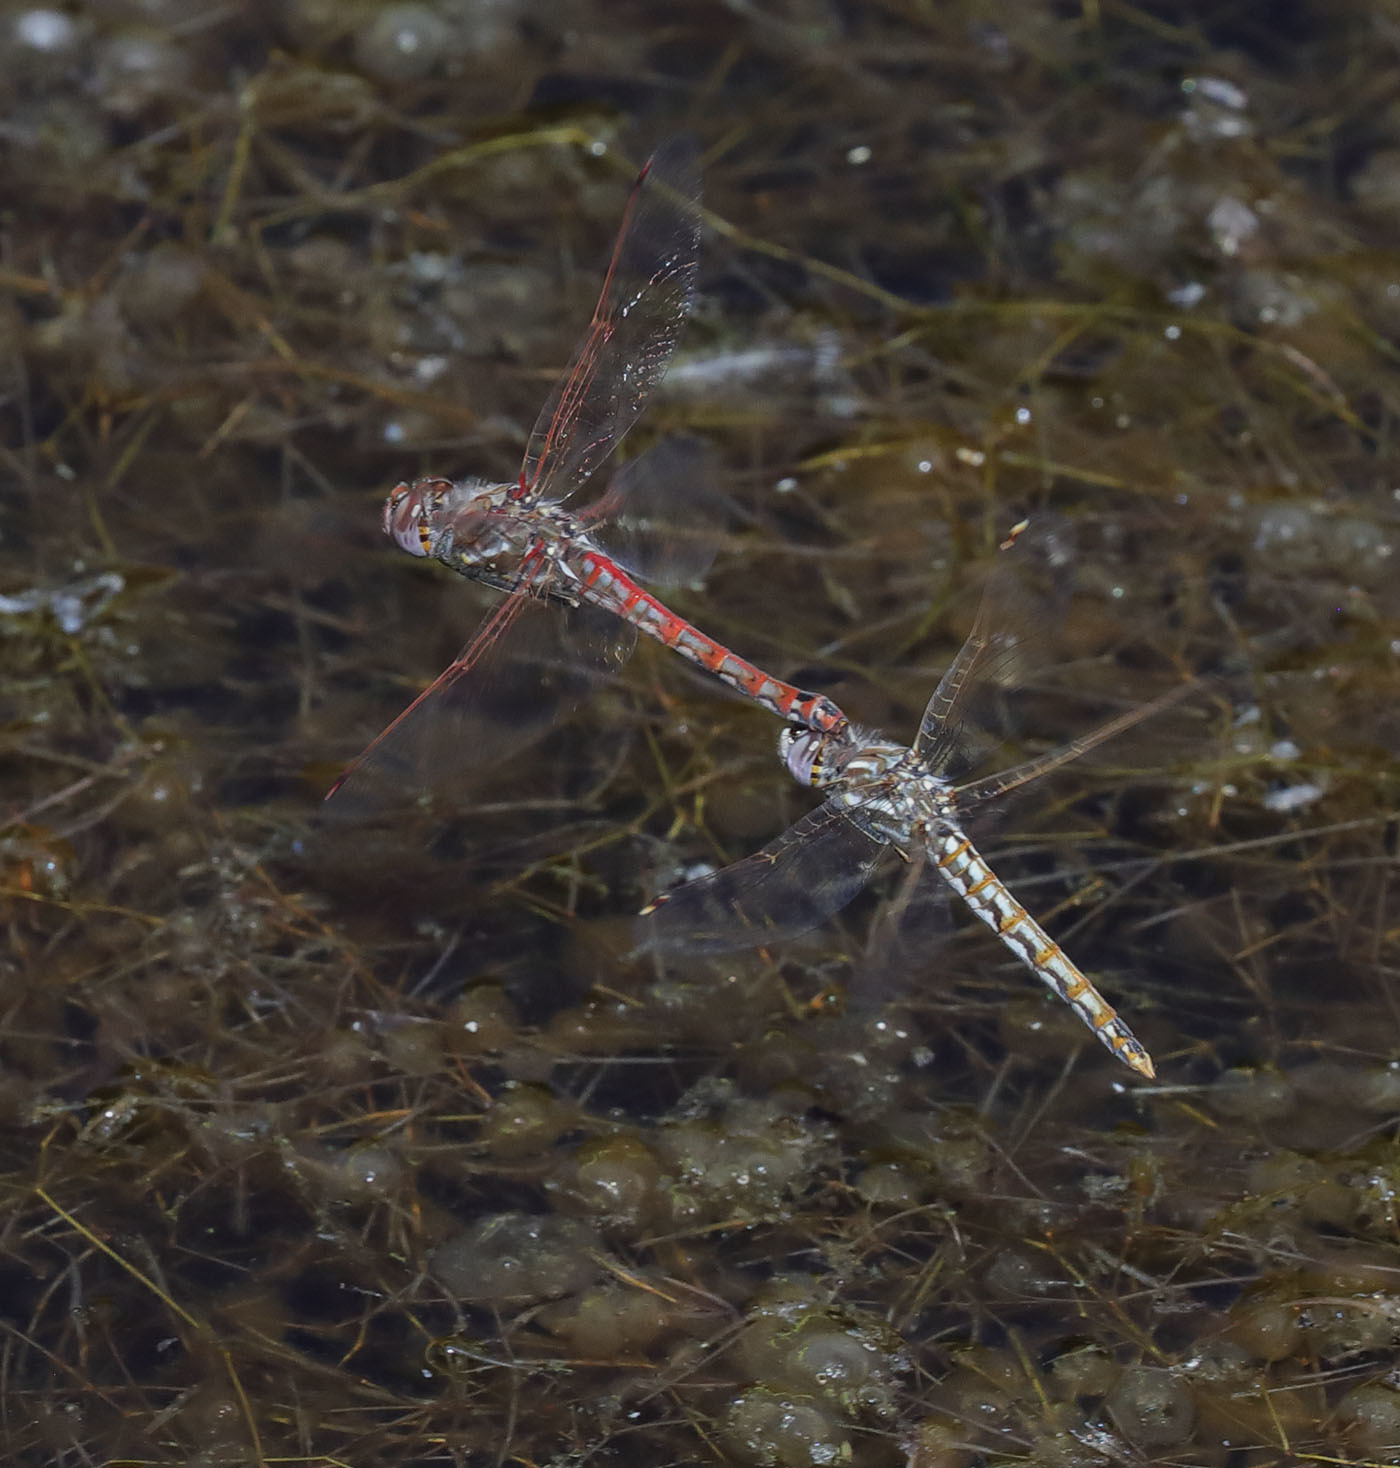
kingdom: Animalia
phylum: Arthropoda
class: Insecta
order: Odonata
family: Libellulidae
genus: Sympetrum
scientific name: Sympetrum corruptum
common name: Variegated meadowhawk
